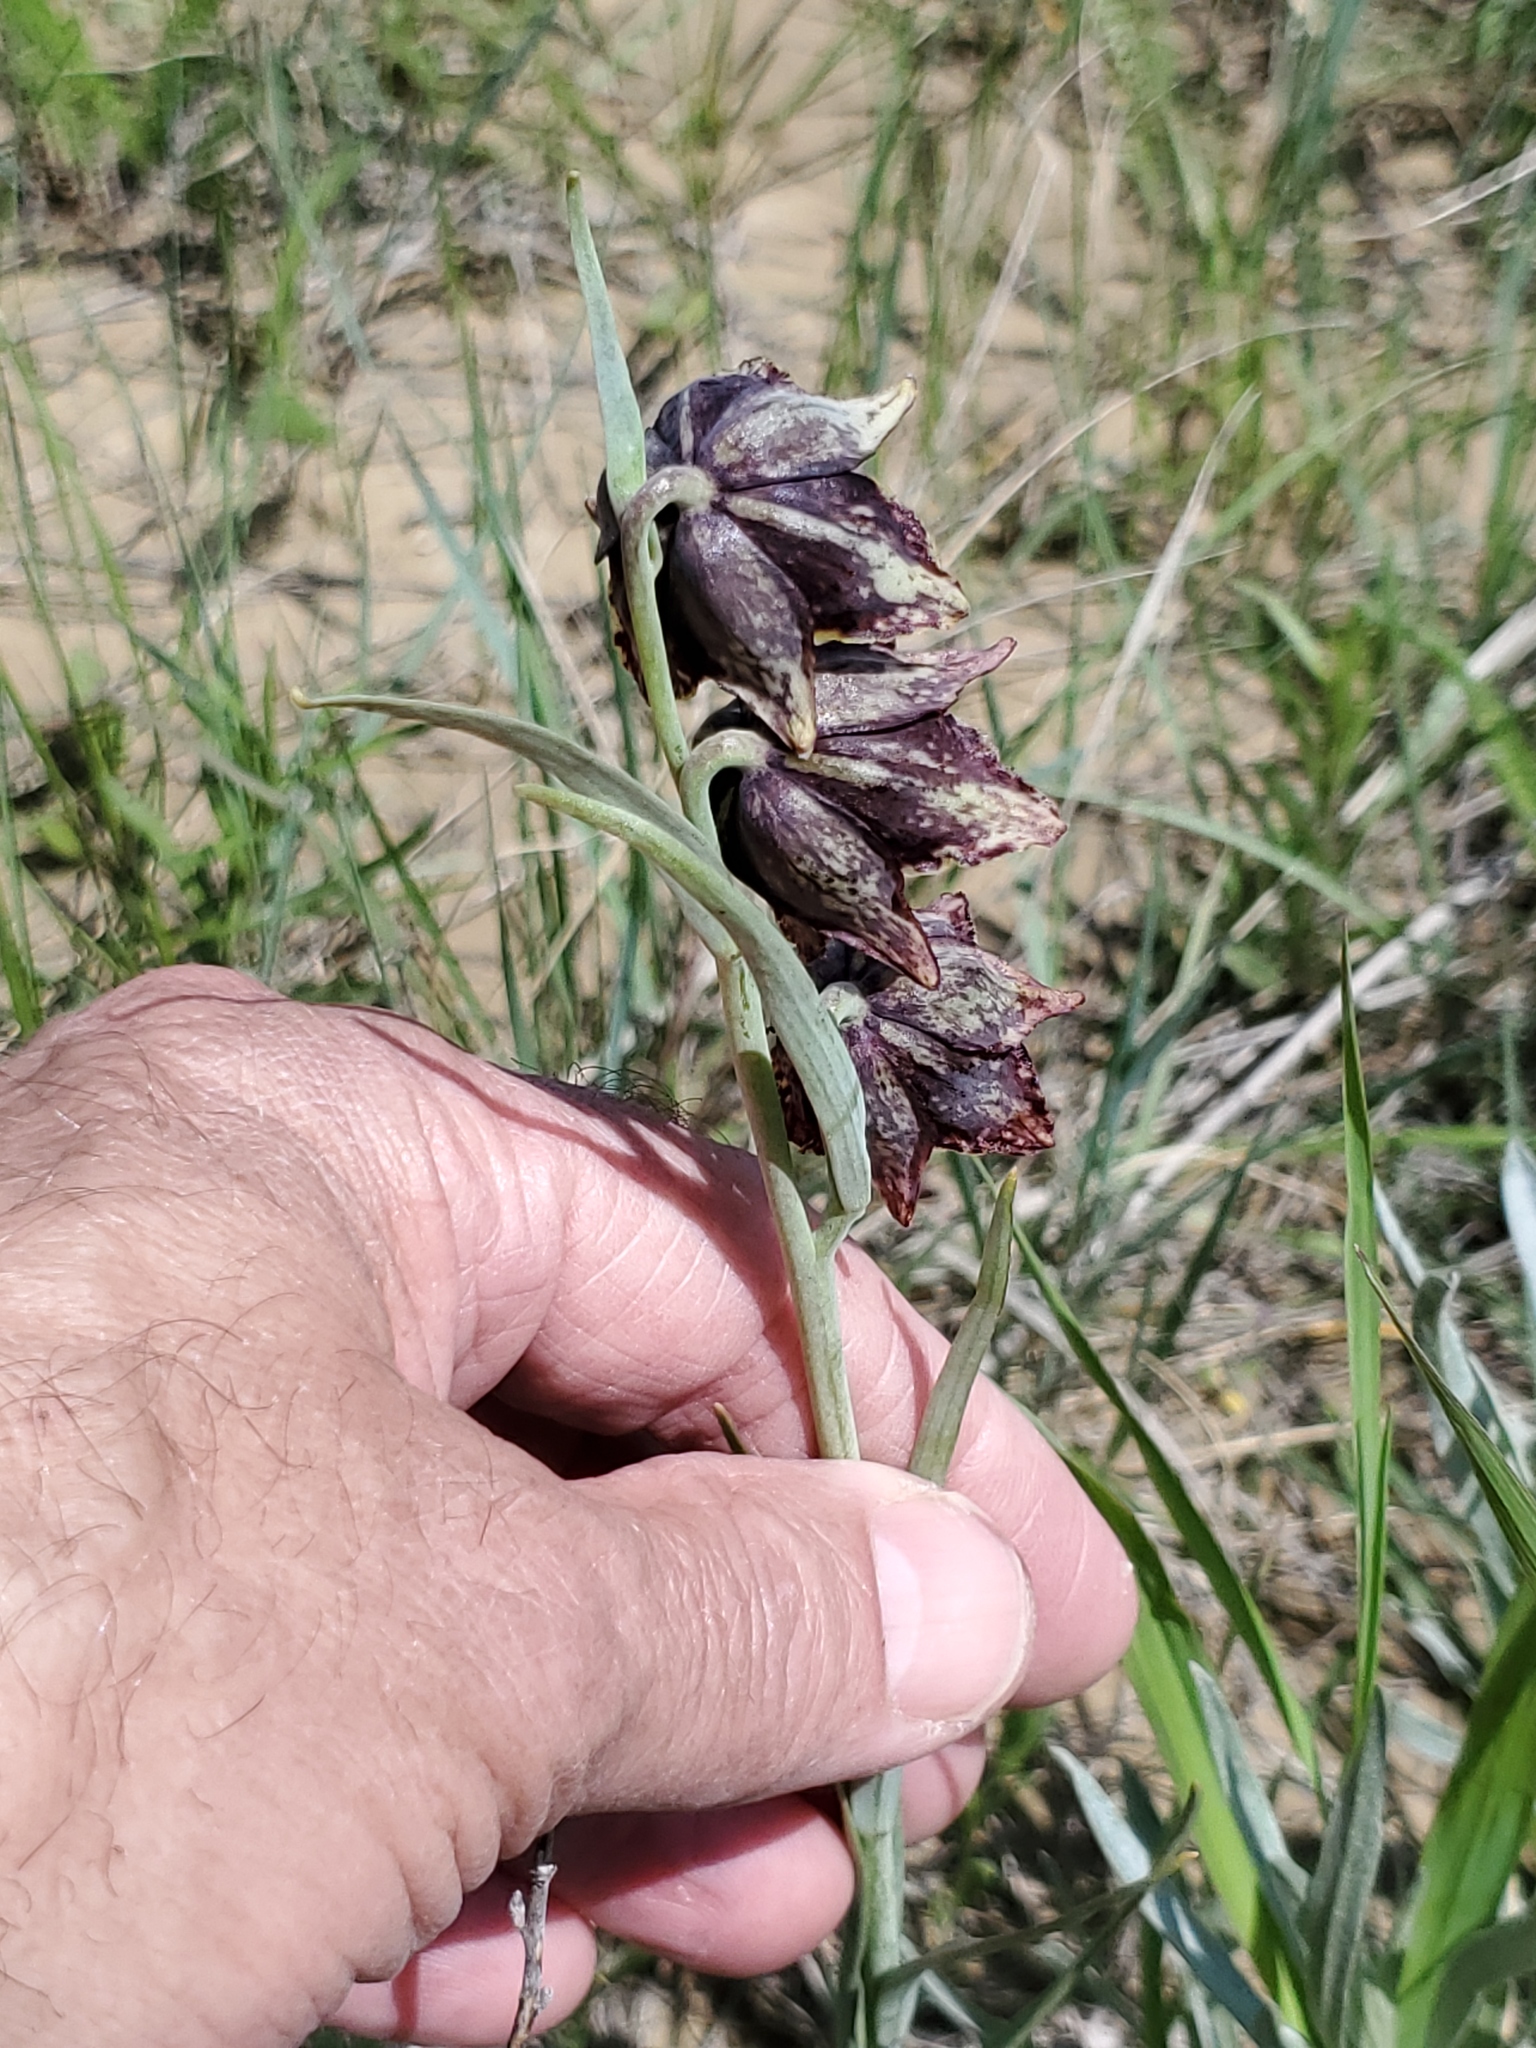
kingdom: Plantae
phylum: Tracheophyta
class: Liliopsida
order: Liliales
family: Liliaceae
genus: Fritillaria
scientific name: Fritillaria atropurpurea
